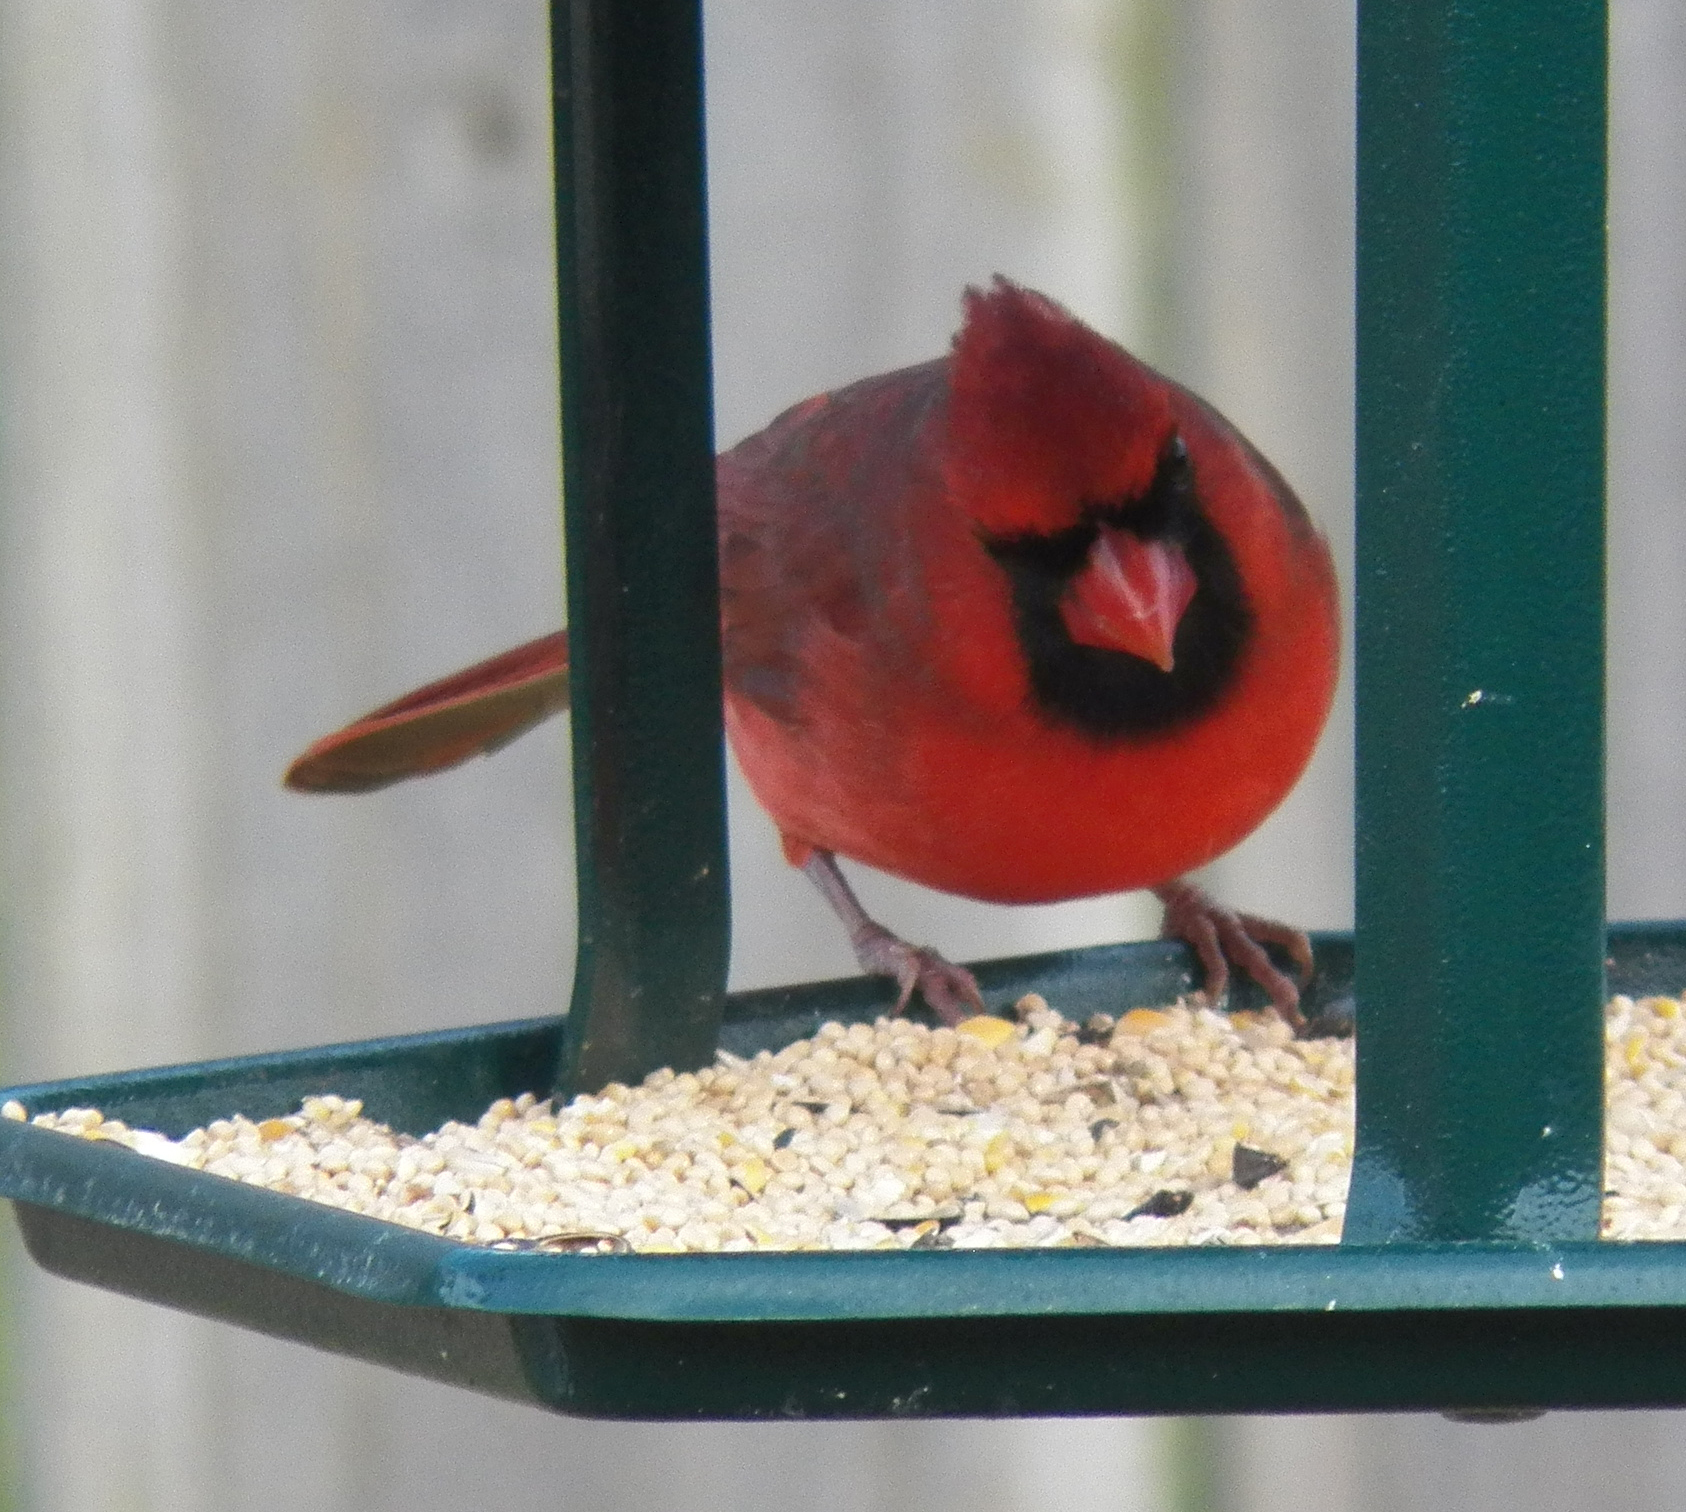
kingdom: Animalia
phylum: Chordata
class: Aves
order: Passeriformes
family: Cardinalidae
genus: Cardinalis
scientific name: Cardinalis cardinalis
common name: Northern cardinal
